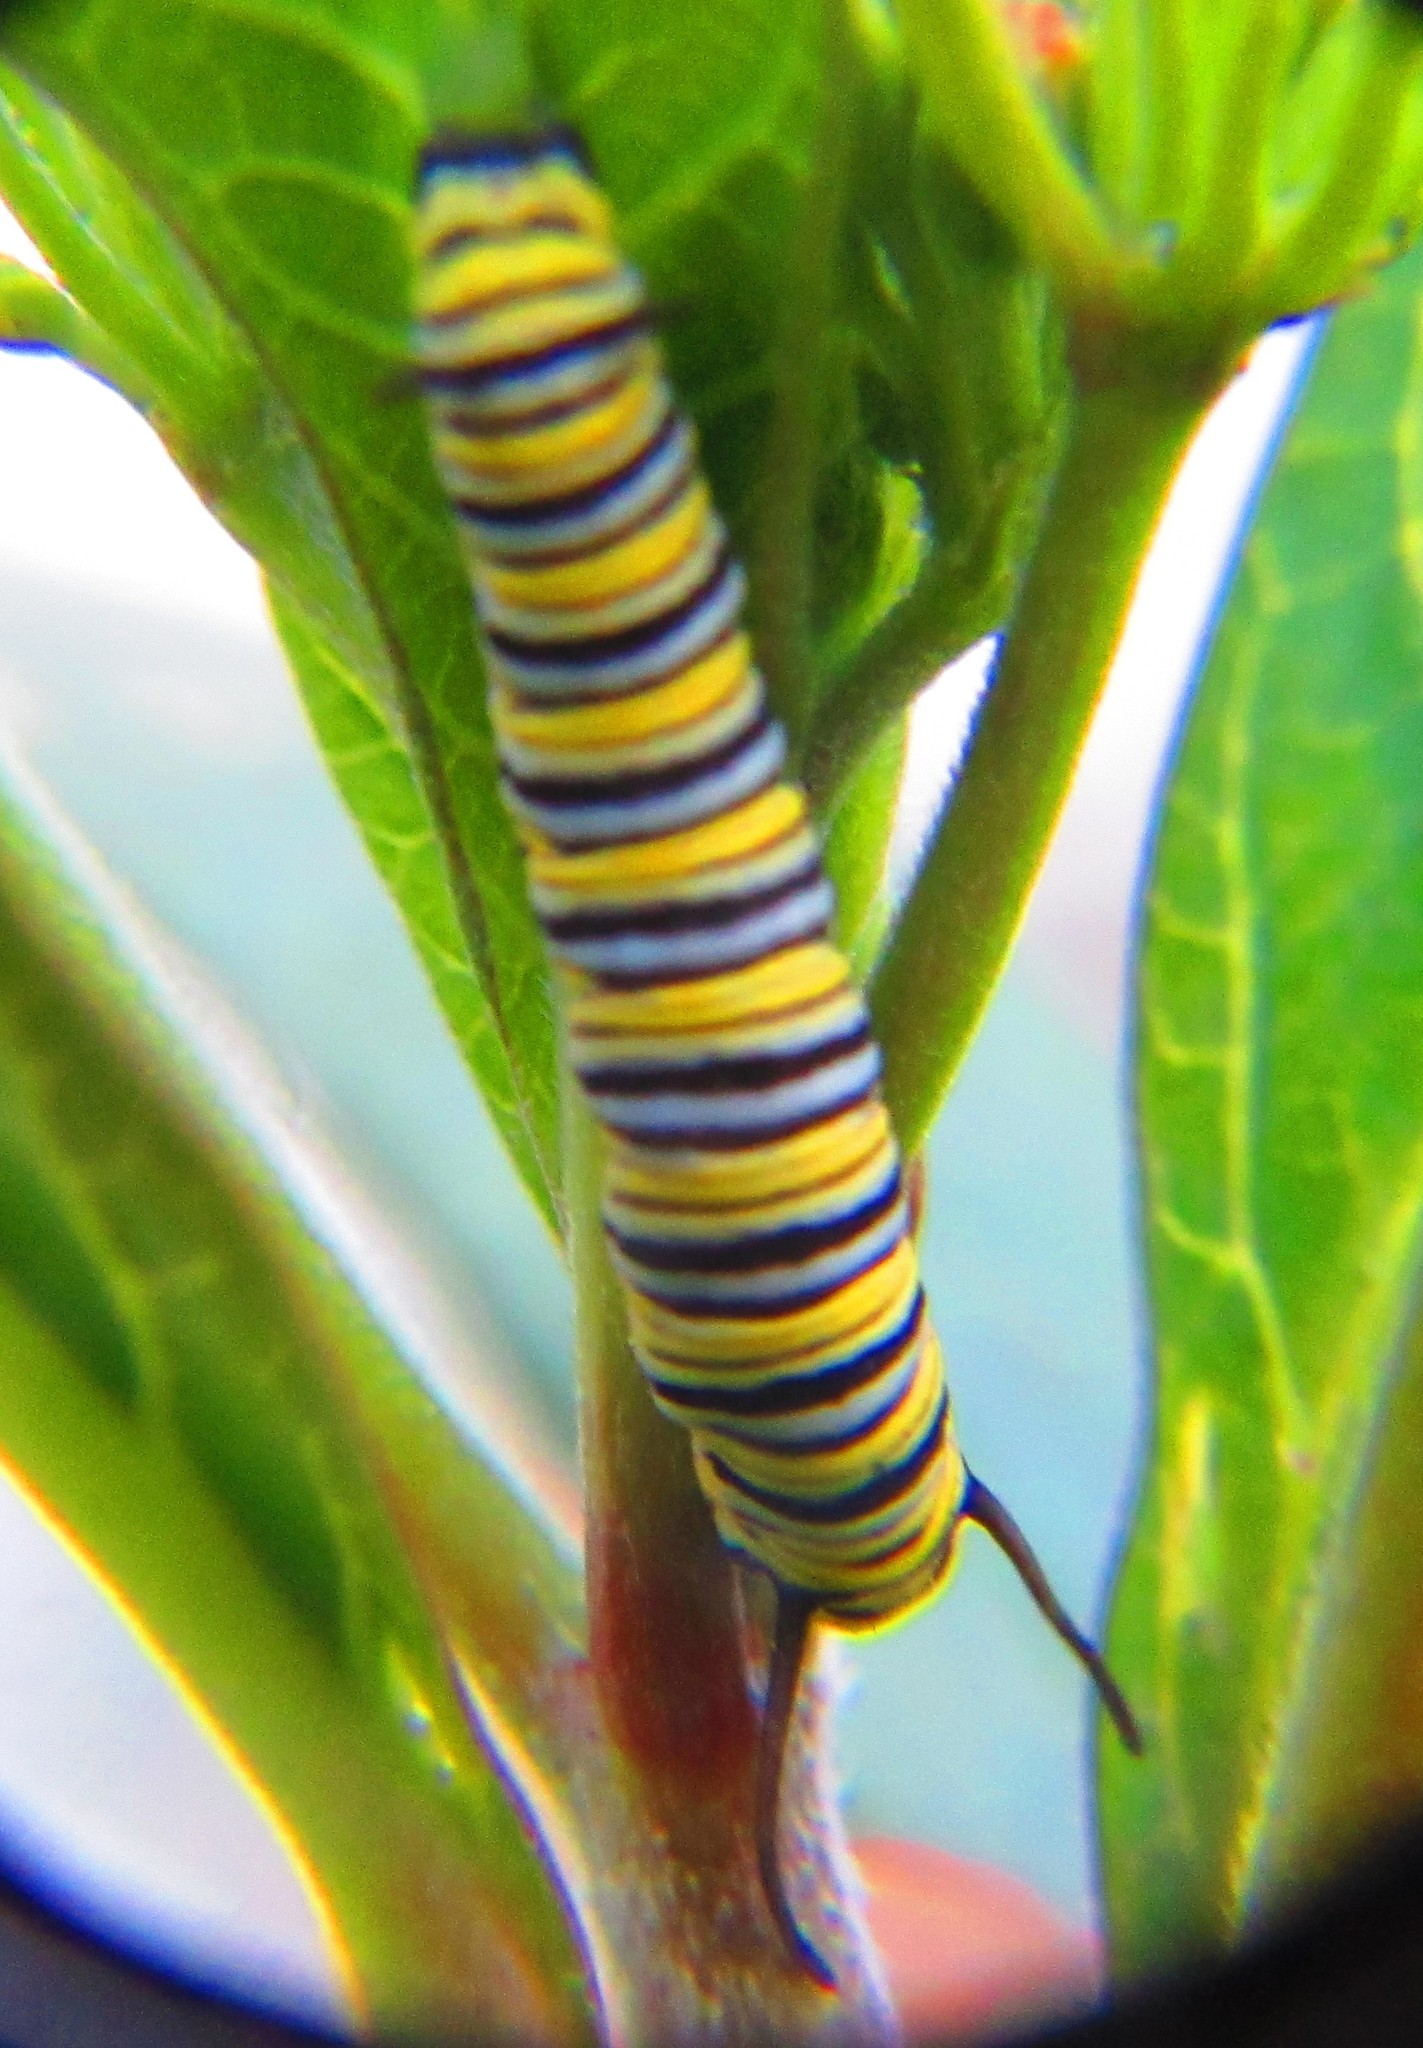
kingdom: Animalia
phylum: Arthropoda
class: Insecta
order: Lepidoptera
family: Nymphalidae
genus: Danaus
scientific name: Danaus plexippus
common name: Monarch
